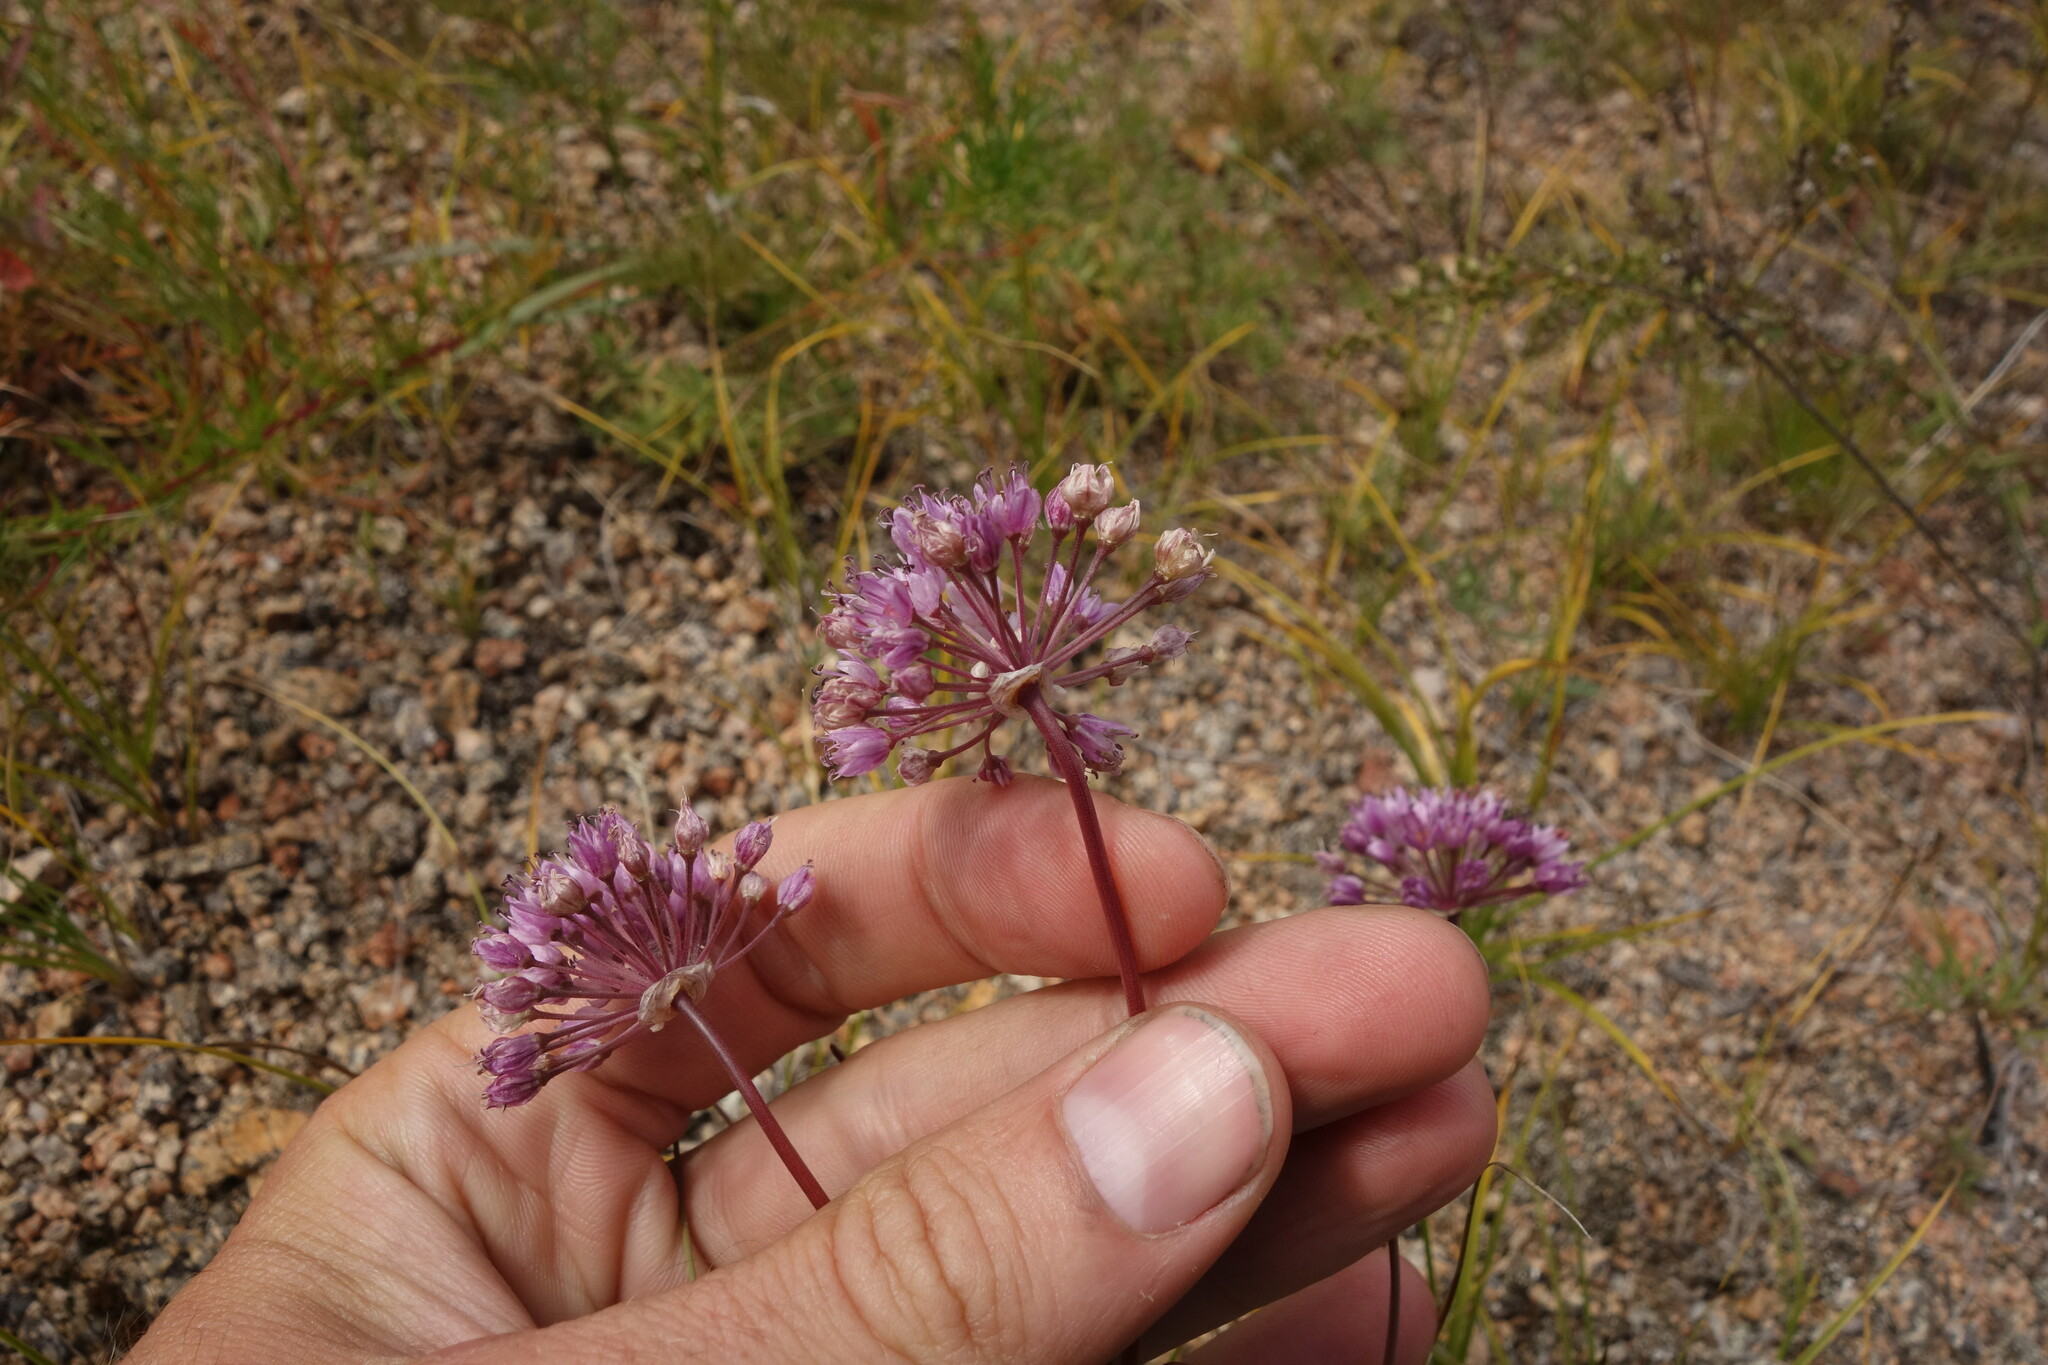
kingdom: Plantae
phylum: Tracheophyta
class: Liliopsida
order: Asparagales
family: Amaryllidaceae
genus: Allium
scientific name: Allium spurium
